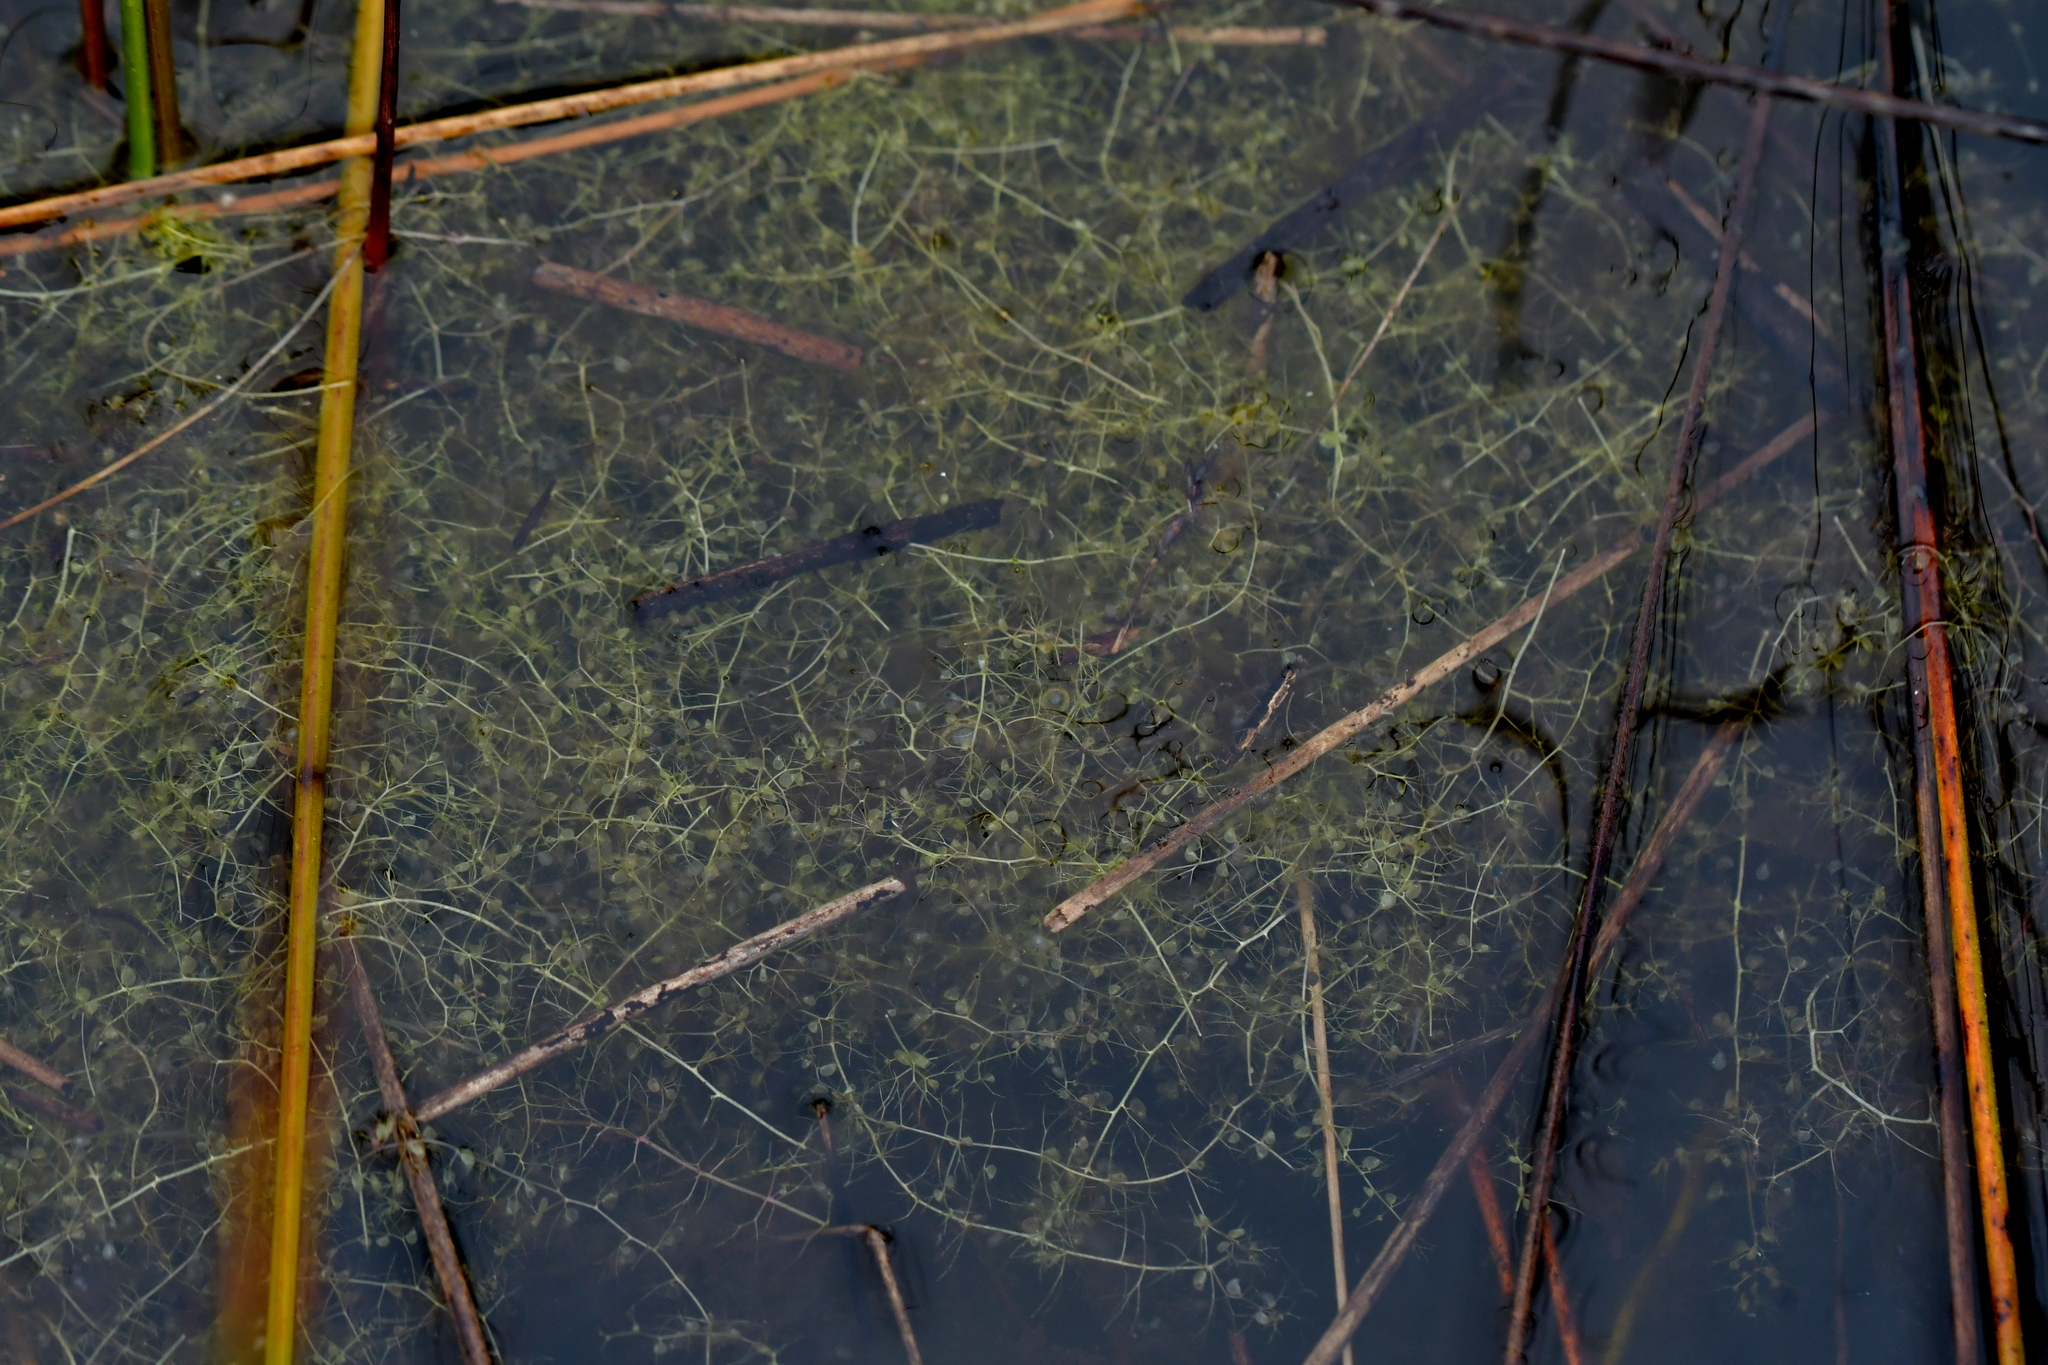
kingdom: Plantae
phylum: Tracheophyta
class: Magnoliopsida
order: Lamiales
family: Lentibulariaceae
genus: Utricularia
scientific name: Utricularia gibba
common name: Humped bladderwort
